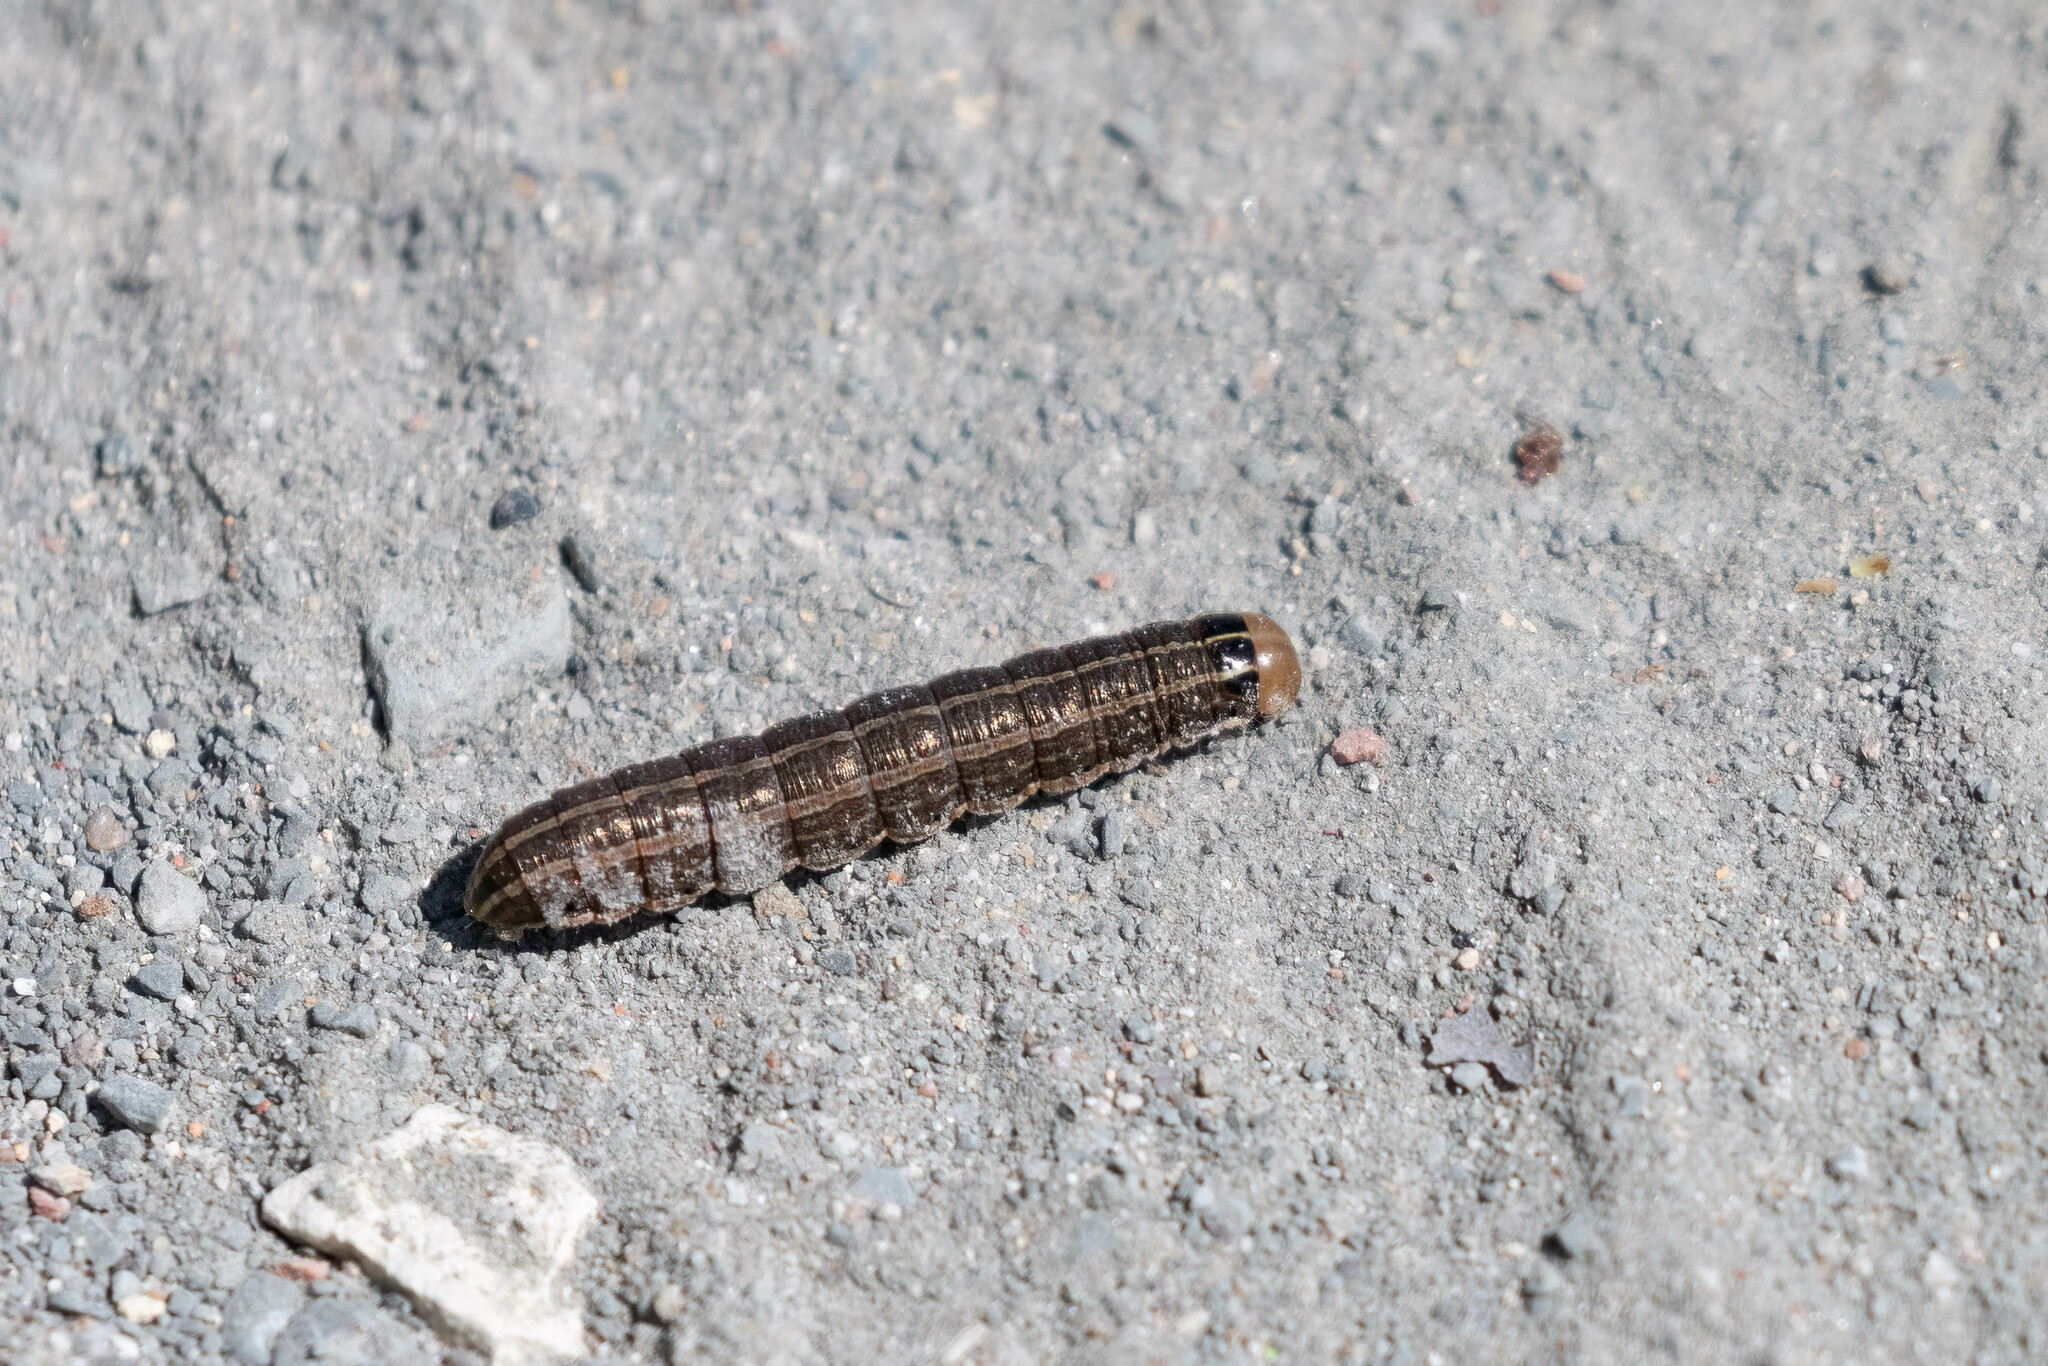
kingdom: Animalia
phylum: Arthropoda
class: Insecta
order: Lepidoptera
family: Noctuidae
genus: Nephelodes
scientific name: Nephelodes minians
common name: Bronzed cutworm
